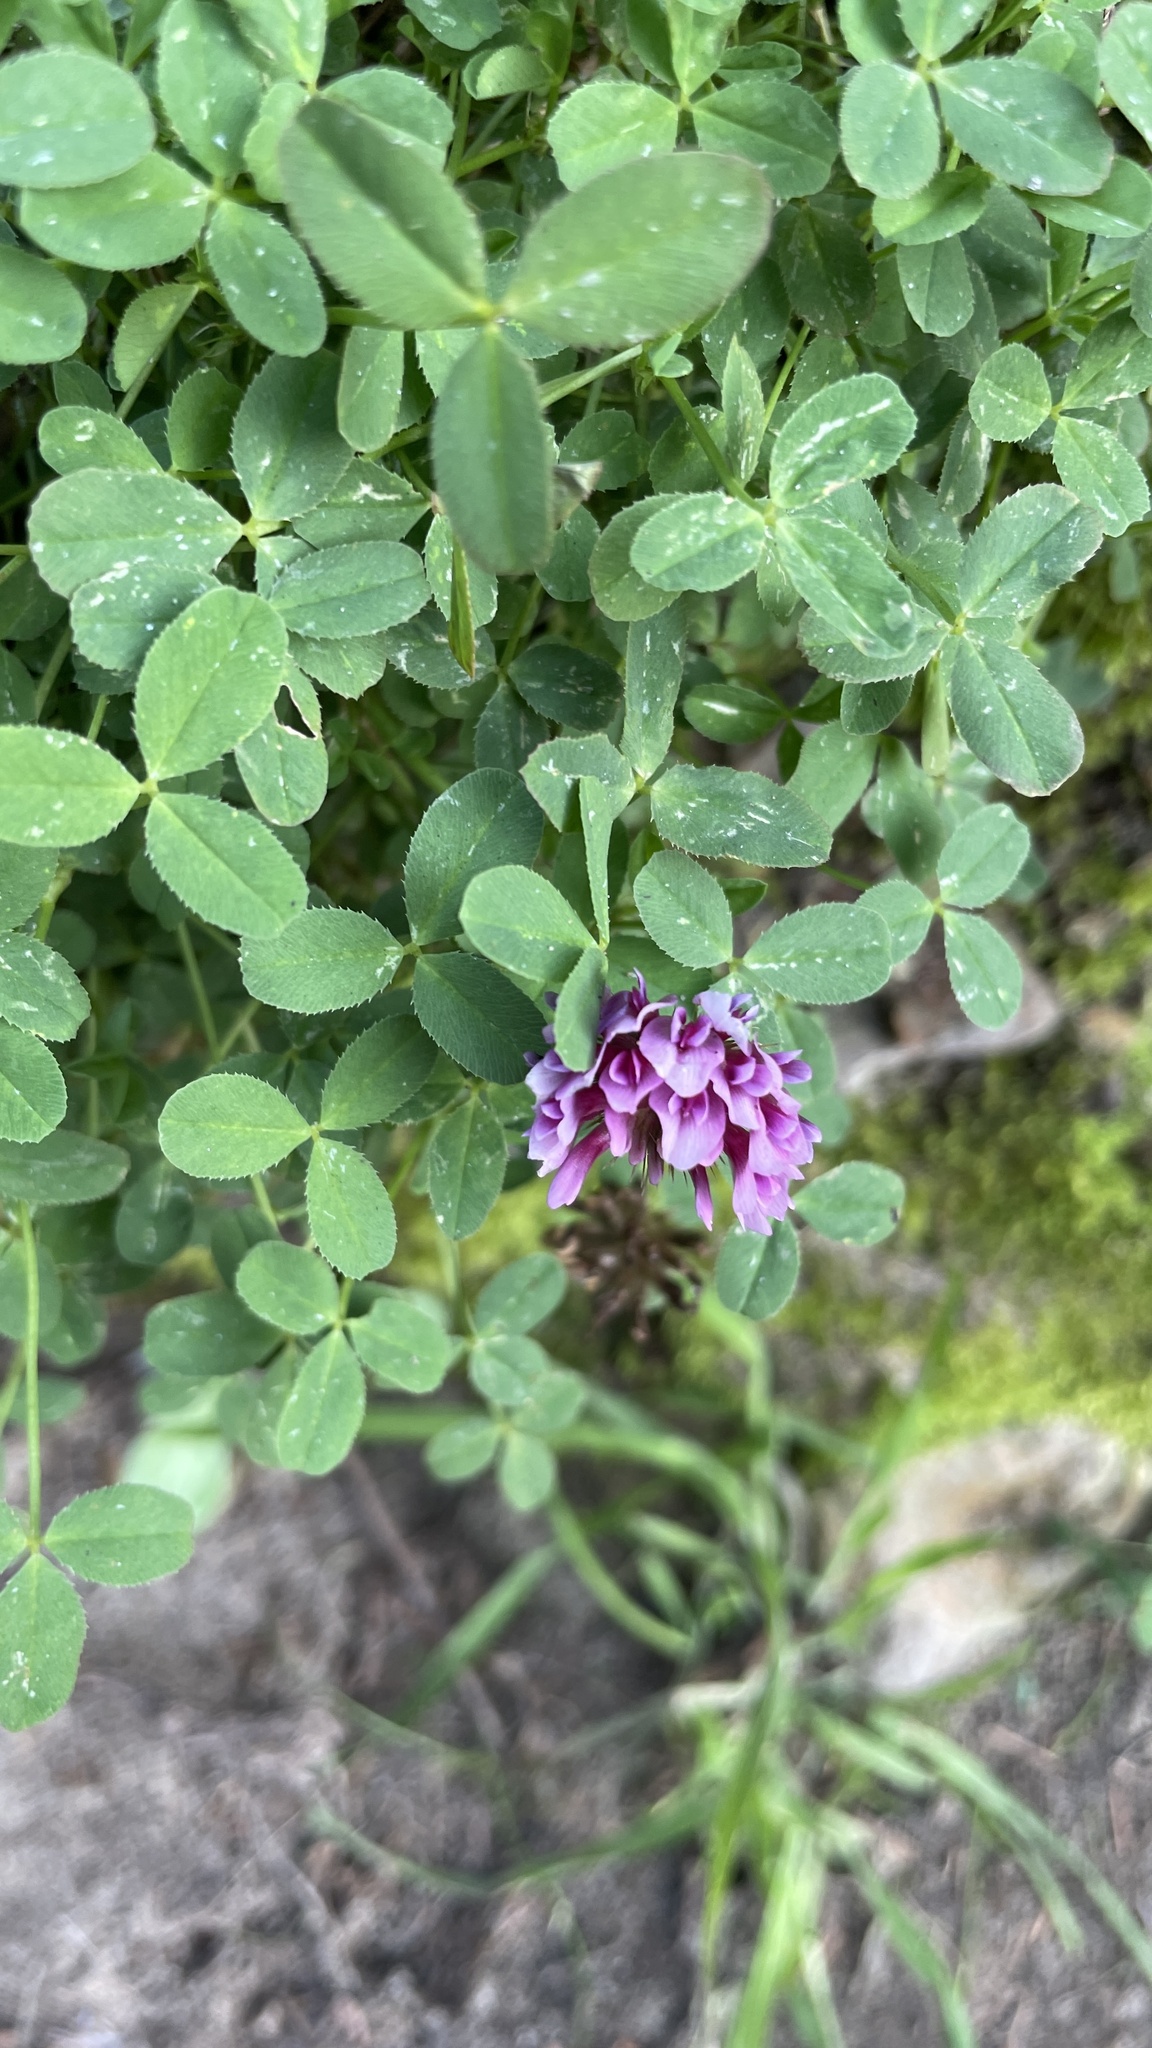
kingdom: Plantae
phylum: Tracheophyta
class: Magnoliopsida
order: Fabales
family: Fabaceae
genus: Trifolium
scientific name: Trifolium wormskioldii
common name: Springbank clover
